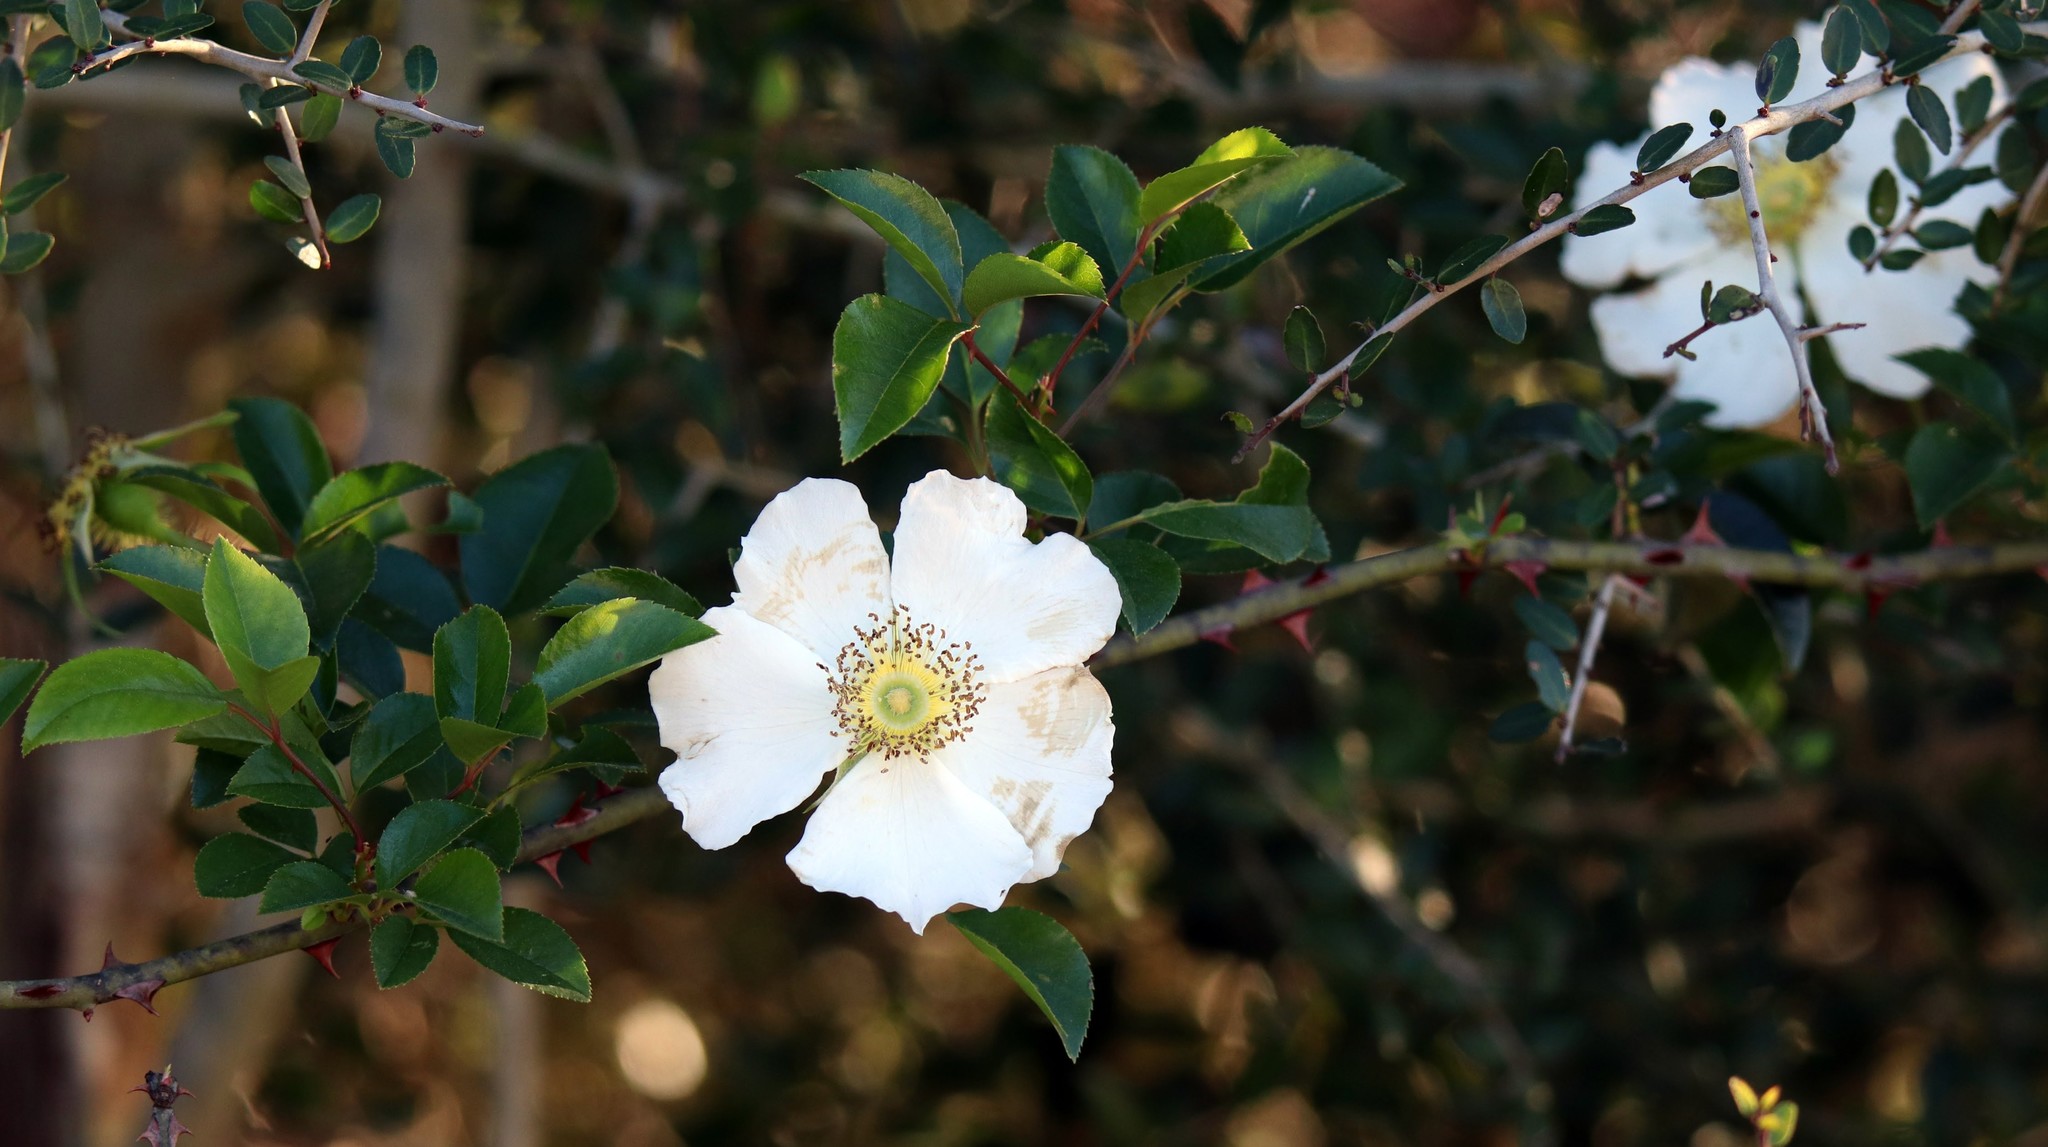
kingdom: Plantae
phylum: Tracheophyta
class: Magnoliopsida
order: Rosales
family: Rosaceae
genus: Rosa
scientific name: Rosa laevigata
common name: Cherokee rose
